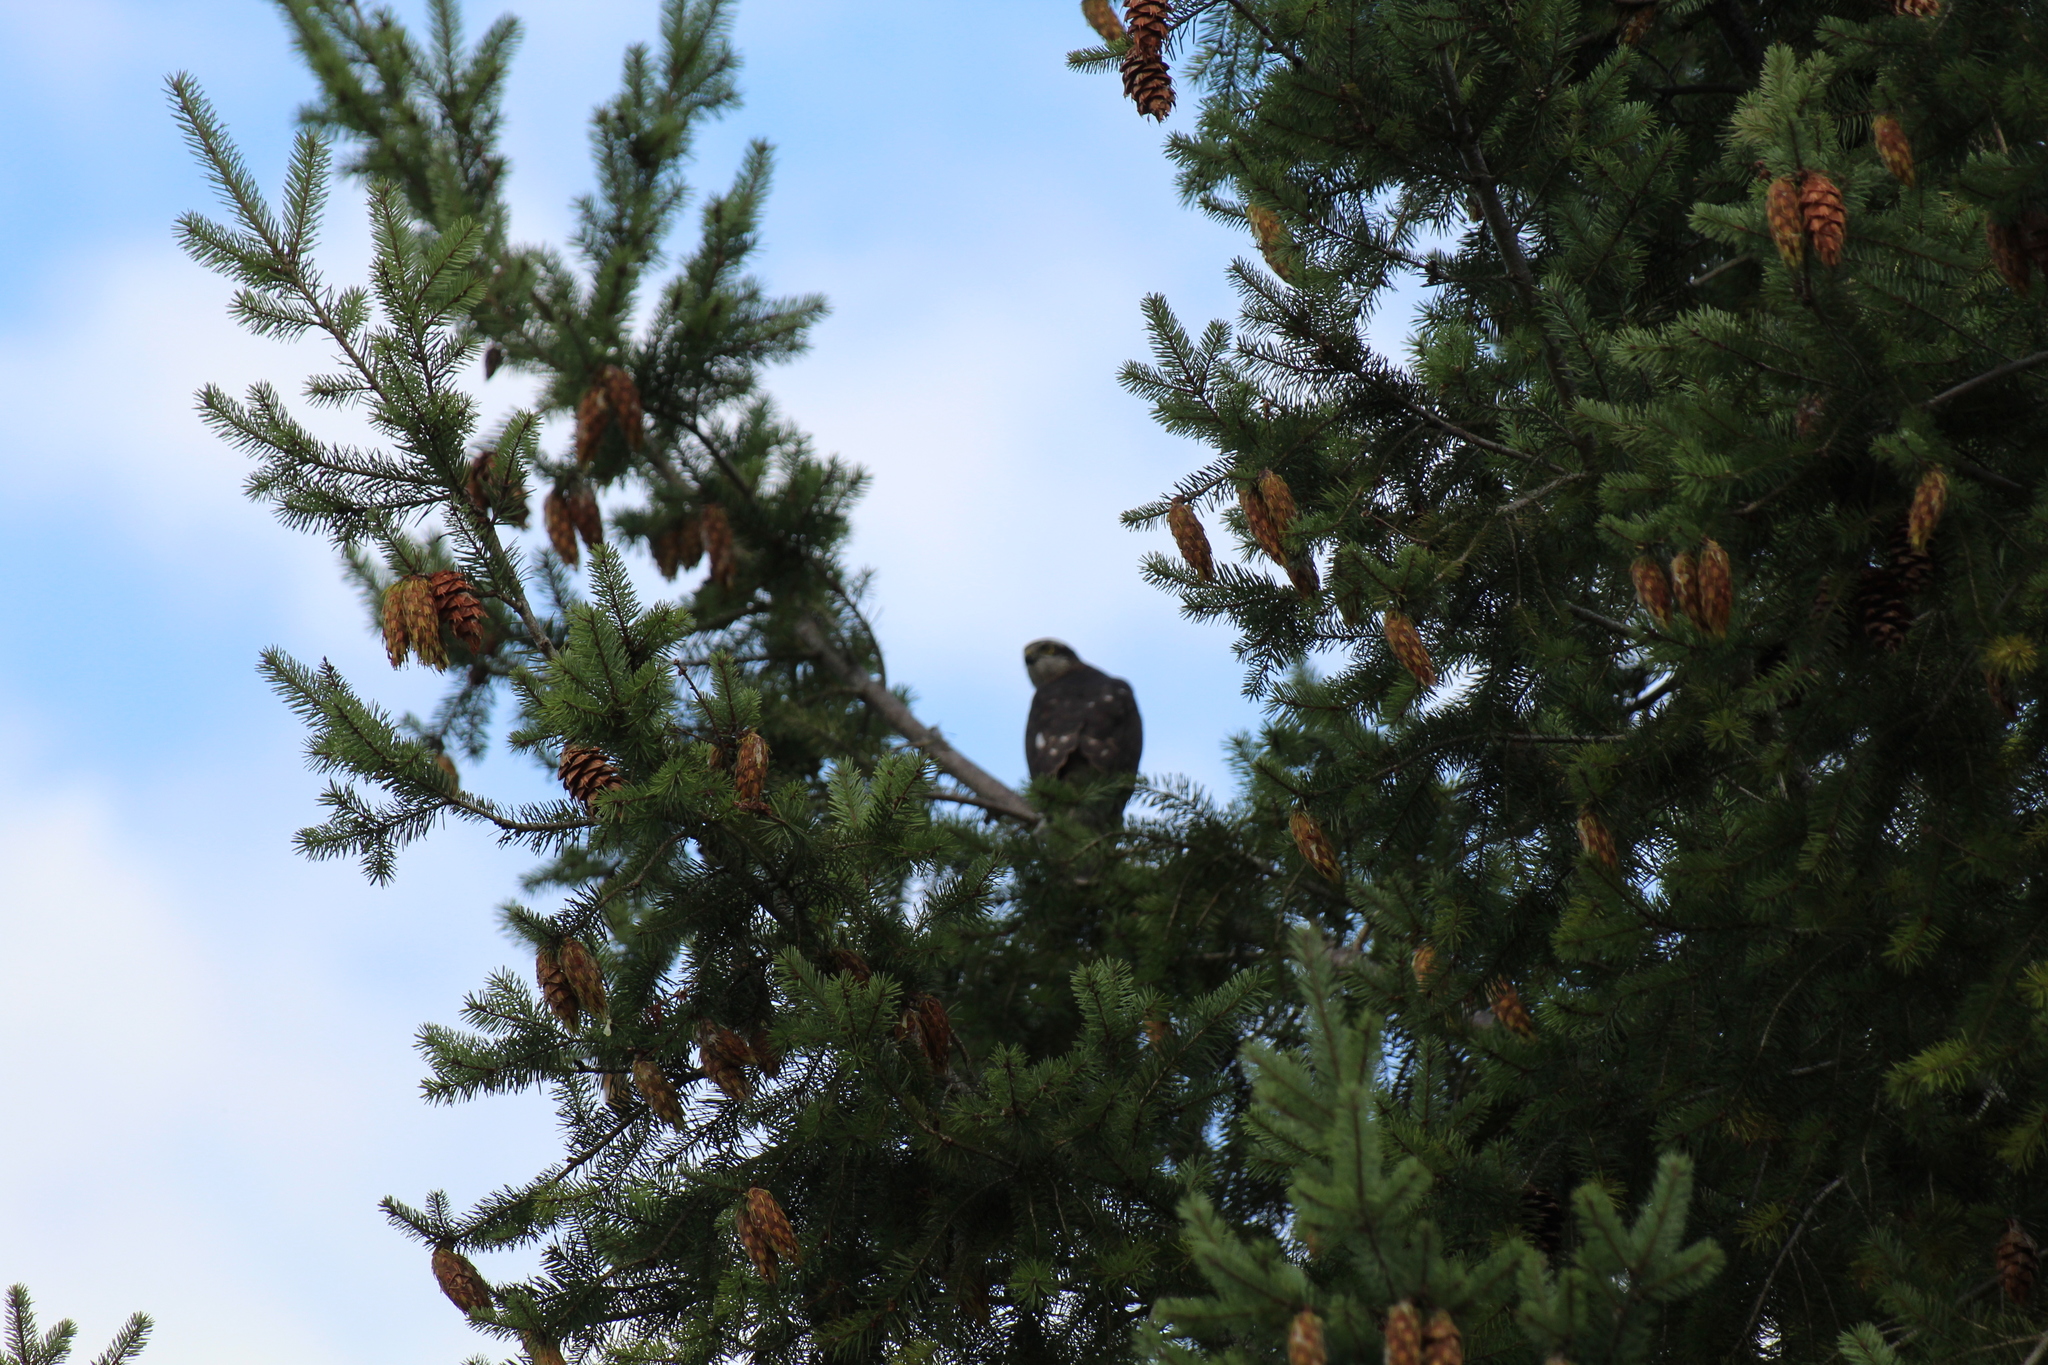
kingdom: Animalia
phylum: Chordata
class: Aves
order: Accipitriformes
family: Accipitridae
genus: Accipiter
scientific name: Accipiter nisus
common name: Eurasian sparrowhawk
